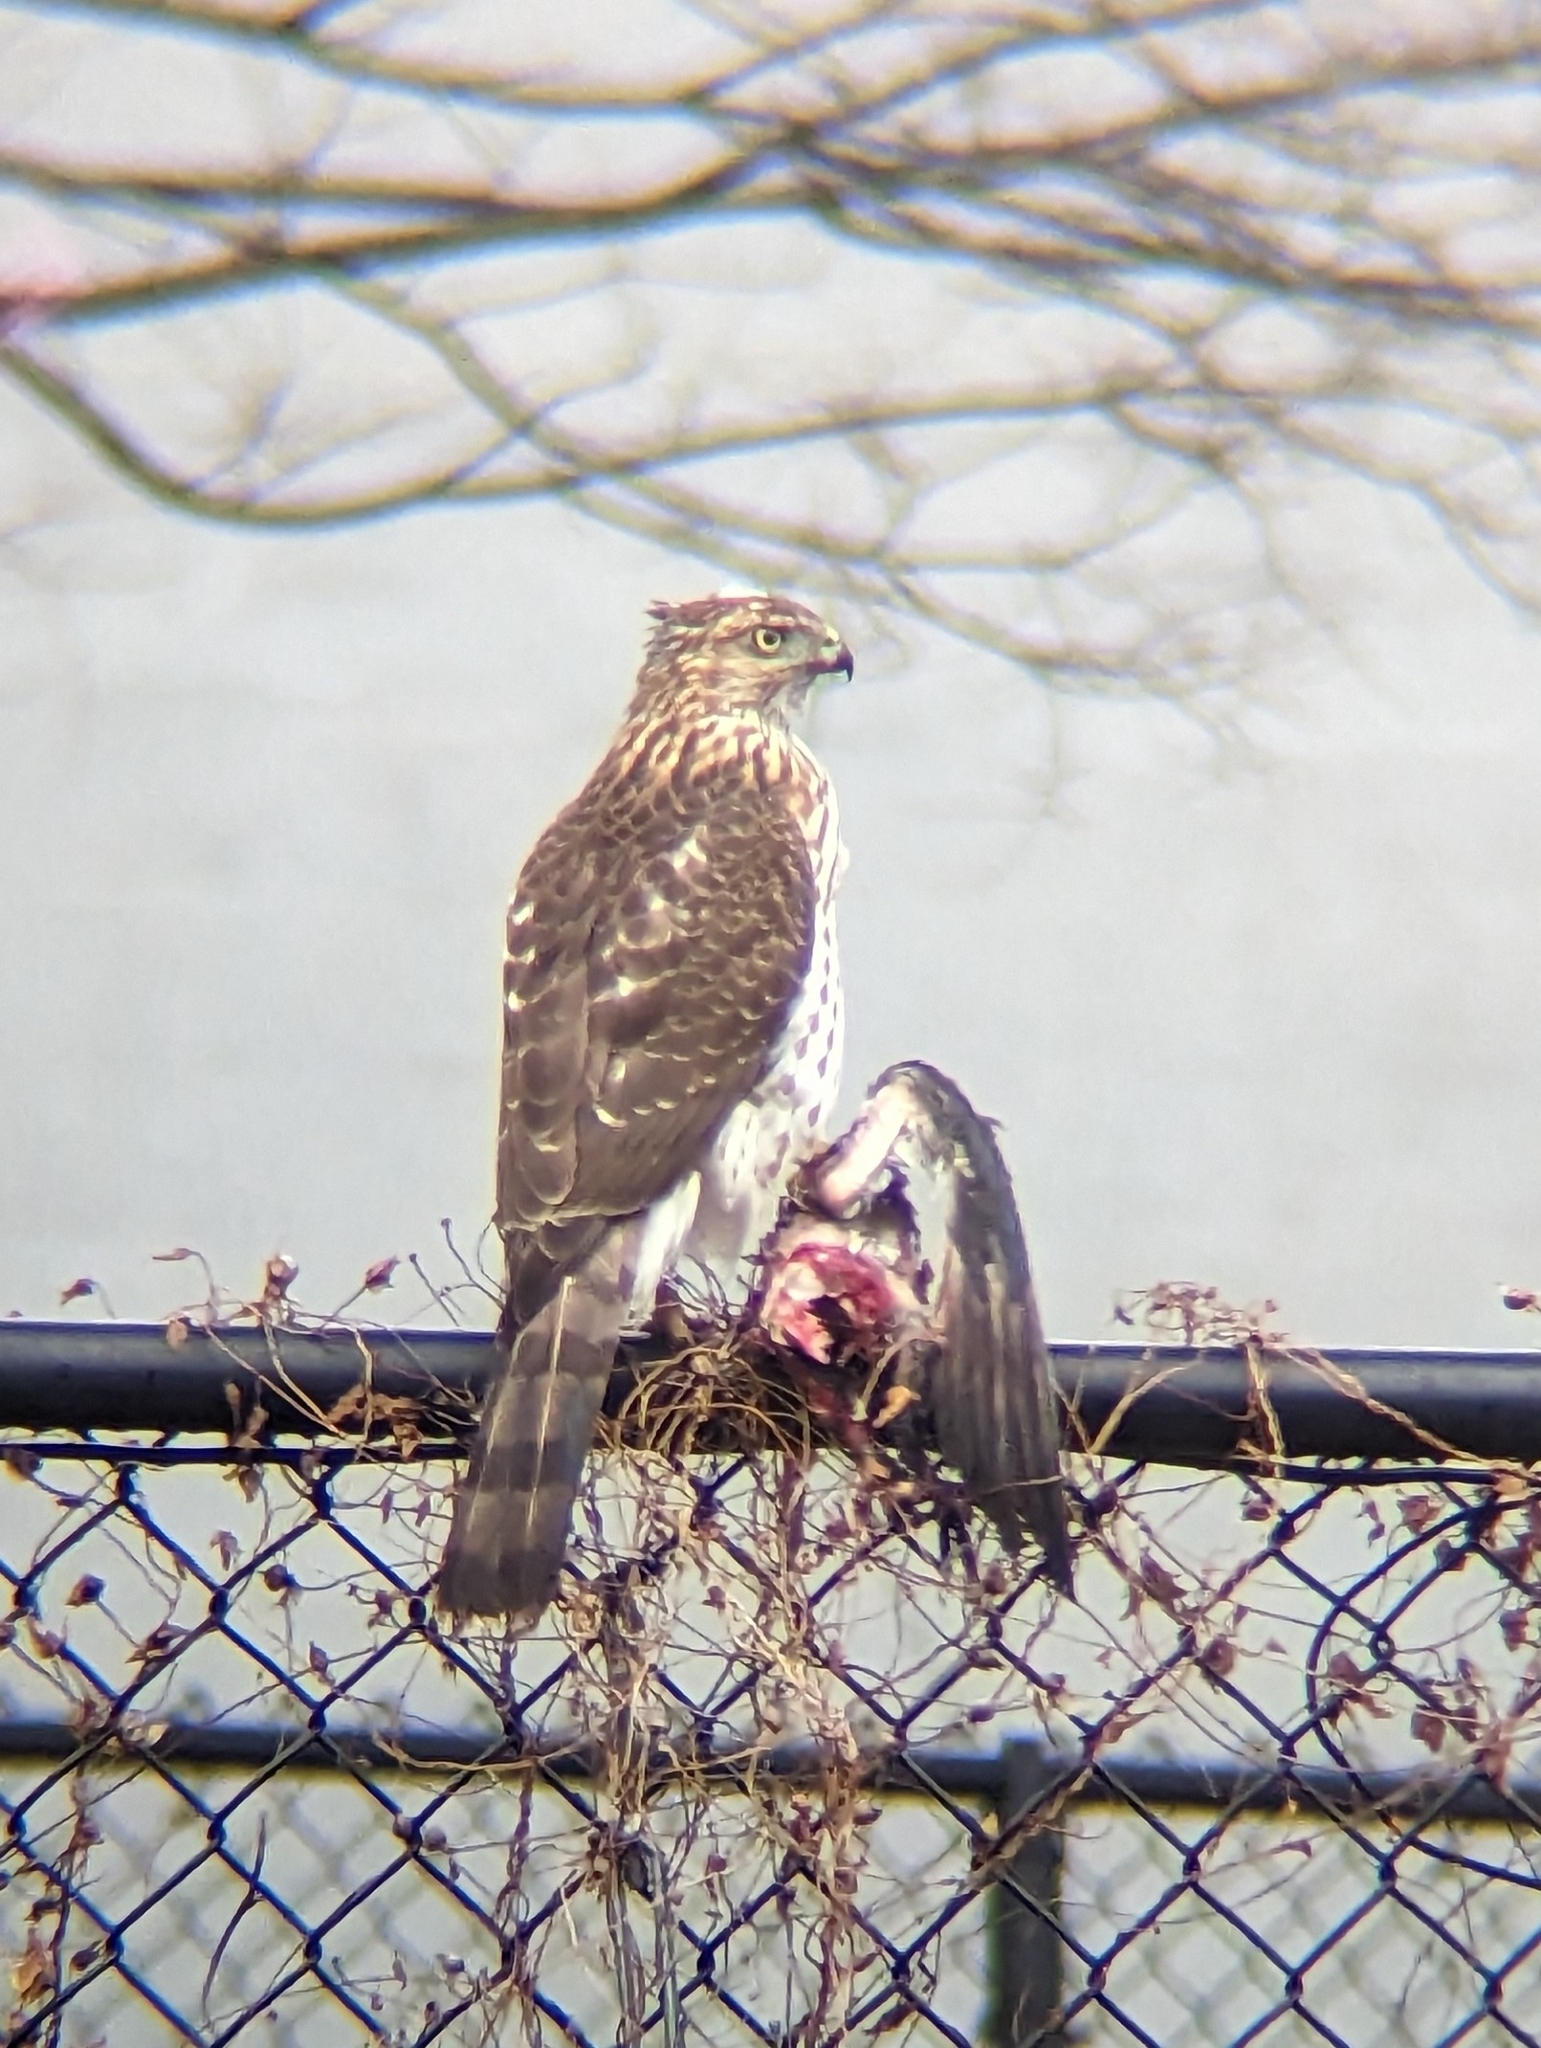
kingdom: Animalia
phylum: Chordata
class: Aves
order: Accipitriformes
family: Accipitridae
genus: Accipiter
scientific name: Accipiter cooperii
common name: Cooper's hawk
